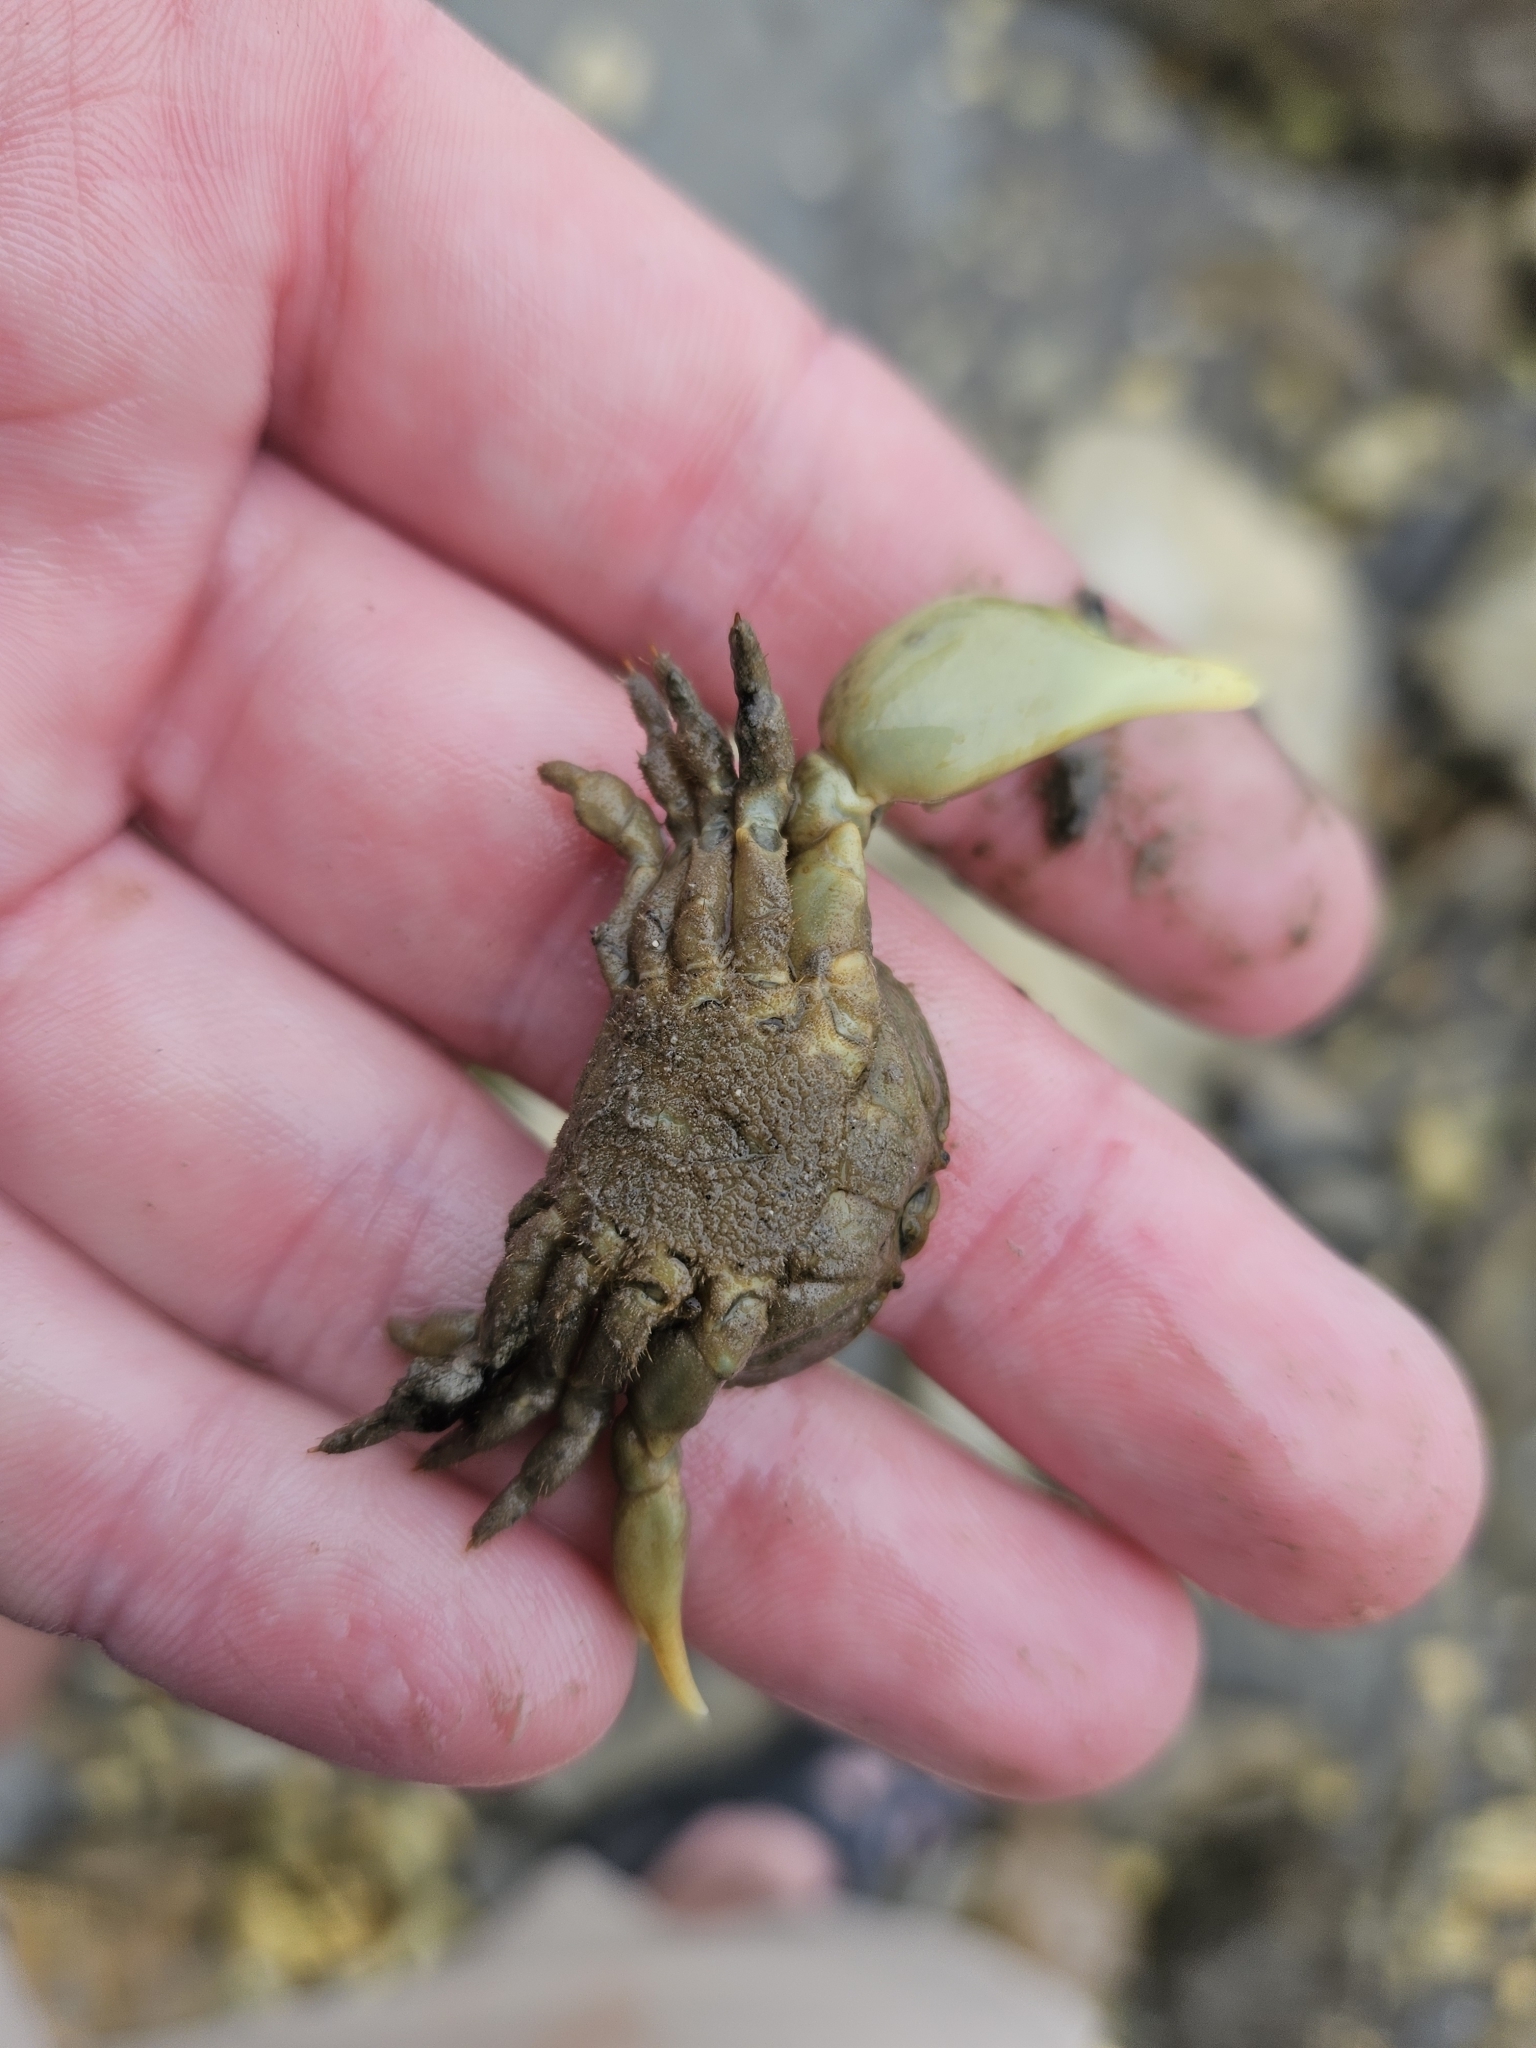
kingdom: Animalia
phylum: Arthropoda
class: Malacostraca
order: Decapoda
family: Heteroziidae
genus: Heterozius
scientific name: Heterozius rotundifrons
